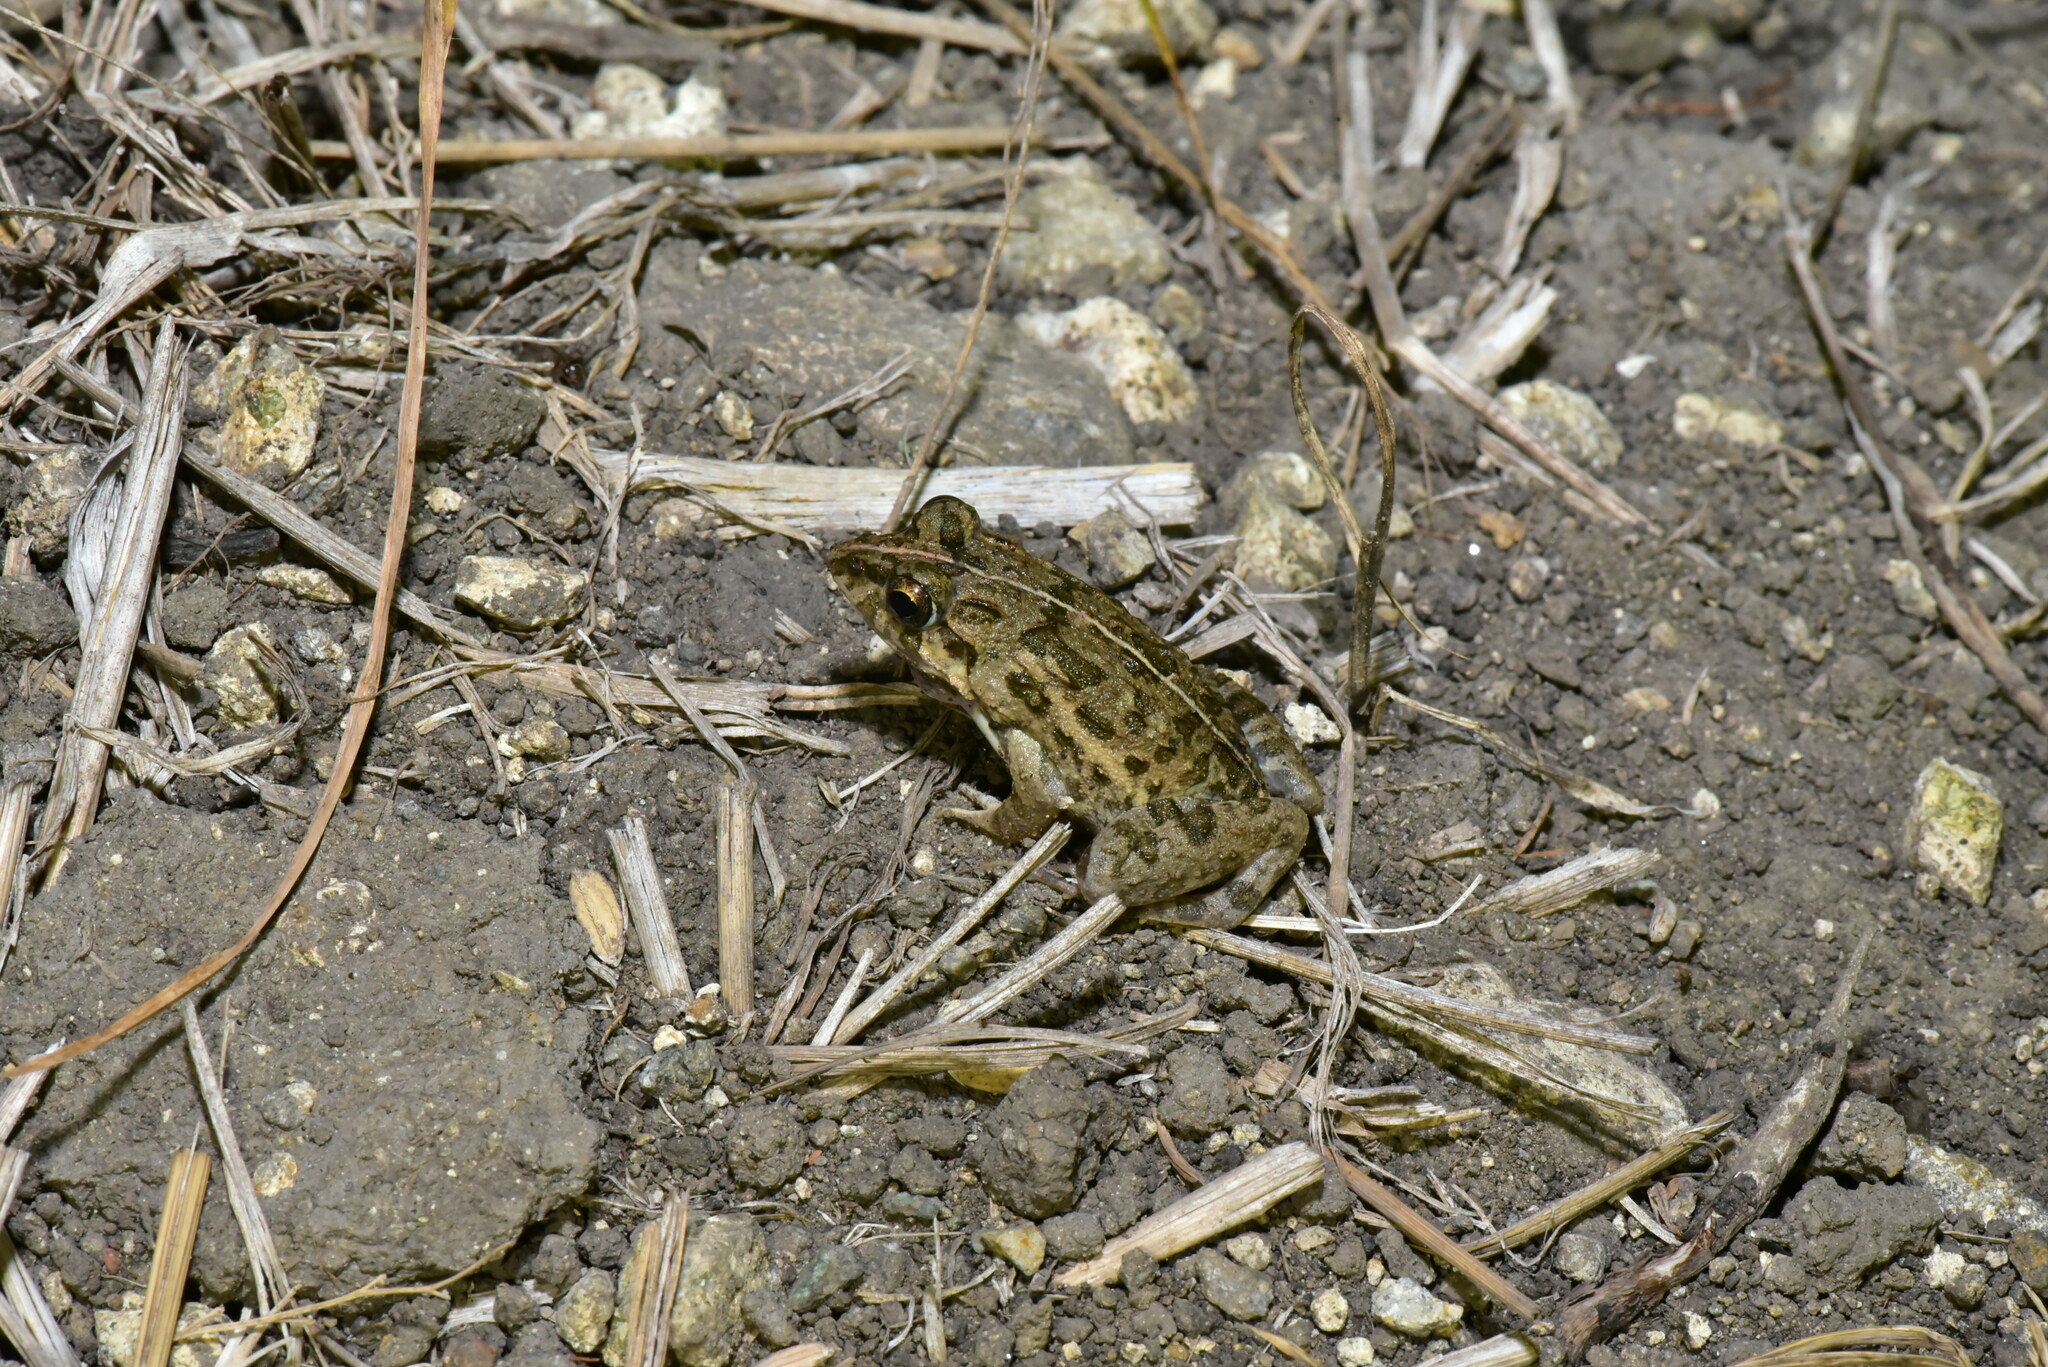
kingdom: Animalia
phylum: Chordata
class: Amphibia
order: Anura
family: Dicroglossidae
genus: Fejervarya
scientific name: Fejervarya limnocharis
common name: Asian grass frog/common pond frog/field frog/grass frog/indian rice frog
